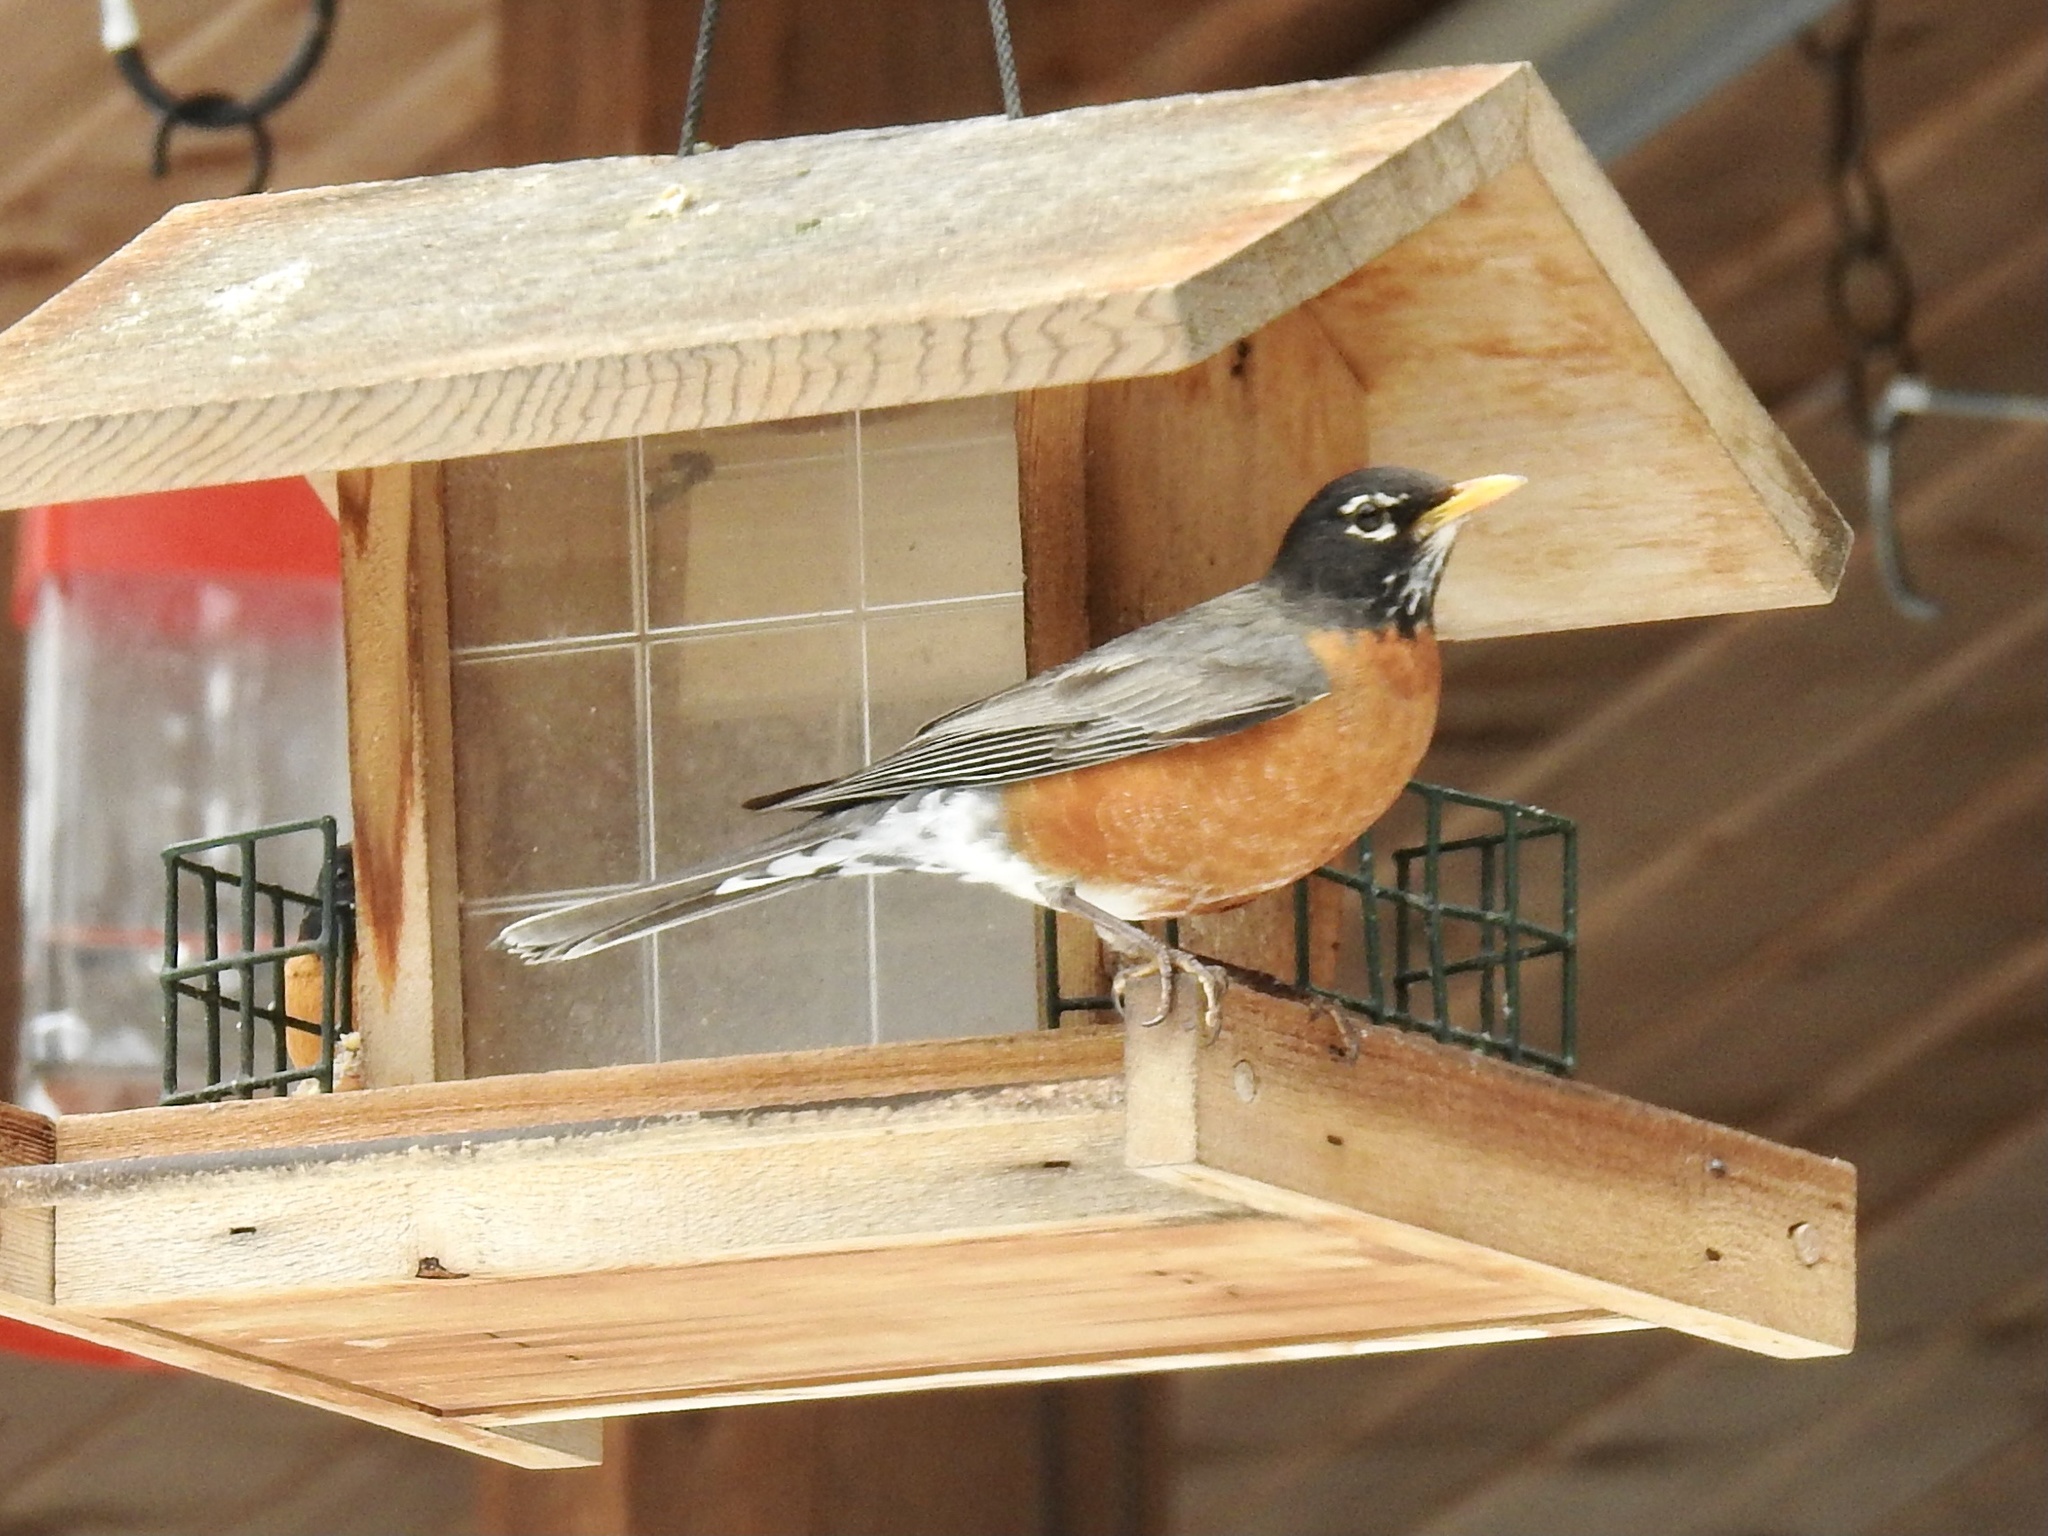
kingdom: Animalia
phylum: Chordata
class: Aves
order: Passeriformes
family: Turdidae
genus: Turdus
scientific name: Turdus migratorius
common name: American robin
